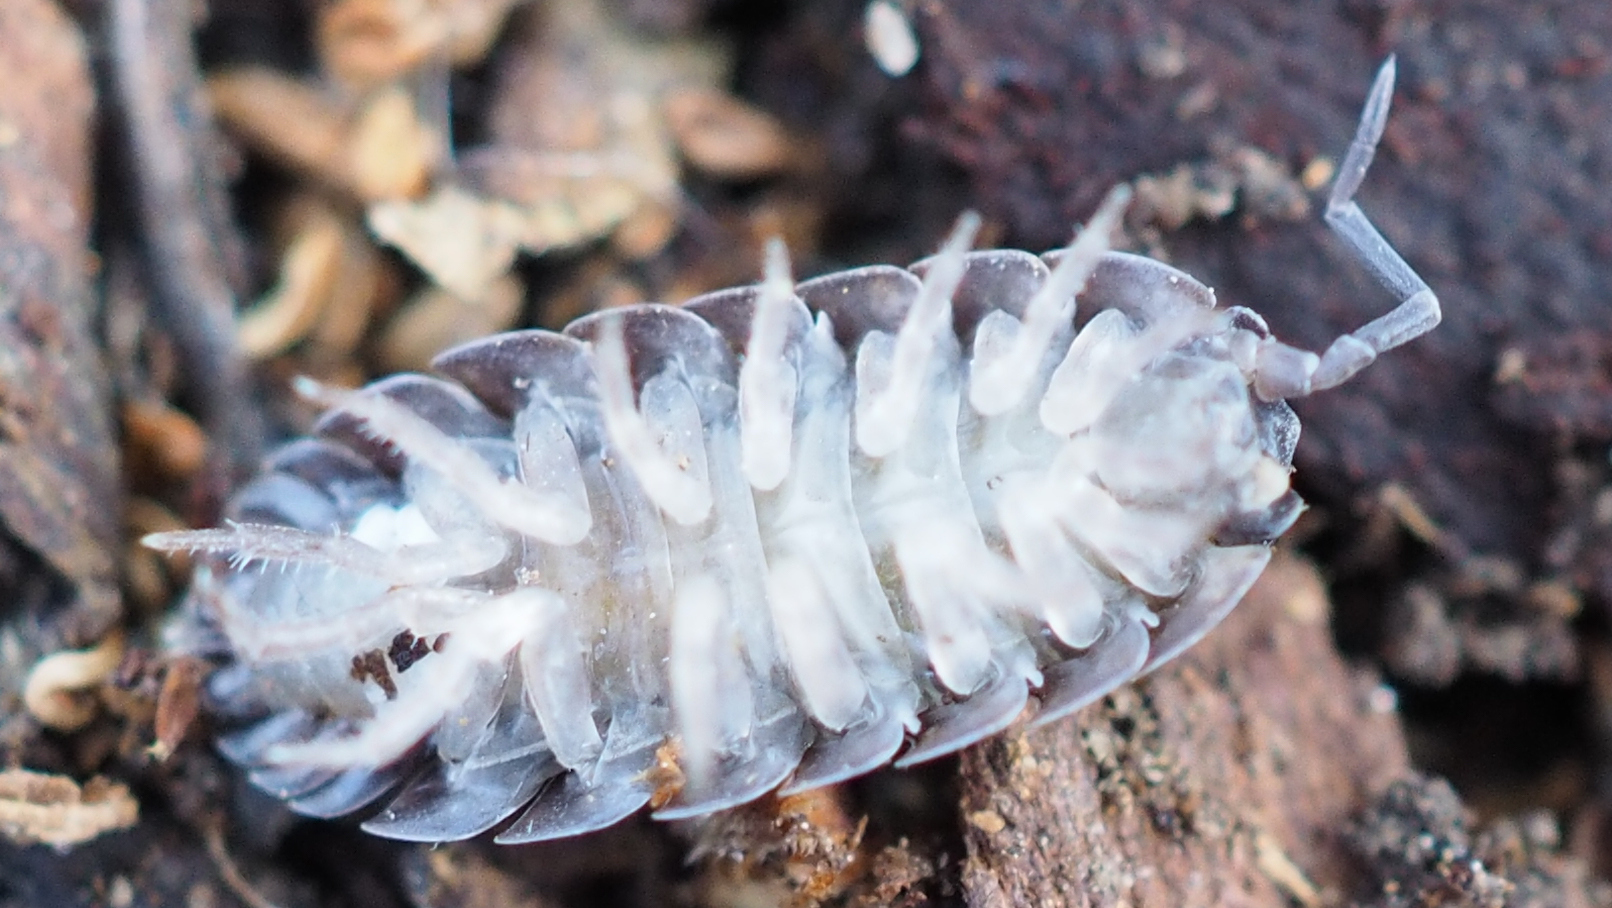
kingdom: Animalia
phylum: Arthropoda
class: Malacostraca
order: Isopoda
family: Porcellionidae
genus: Porcellio
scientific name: Porcellio scaber
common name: Common rough woodlouse
